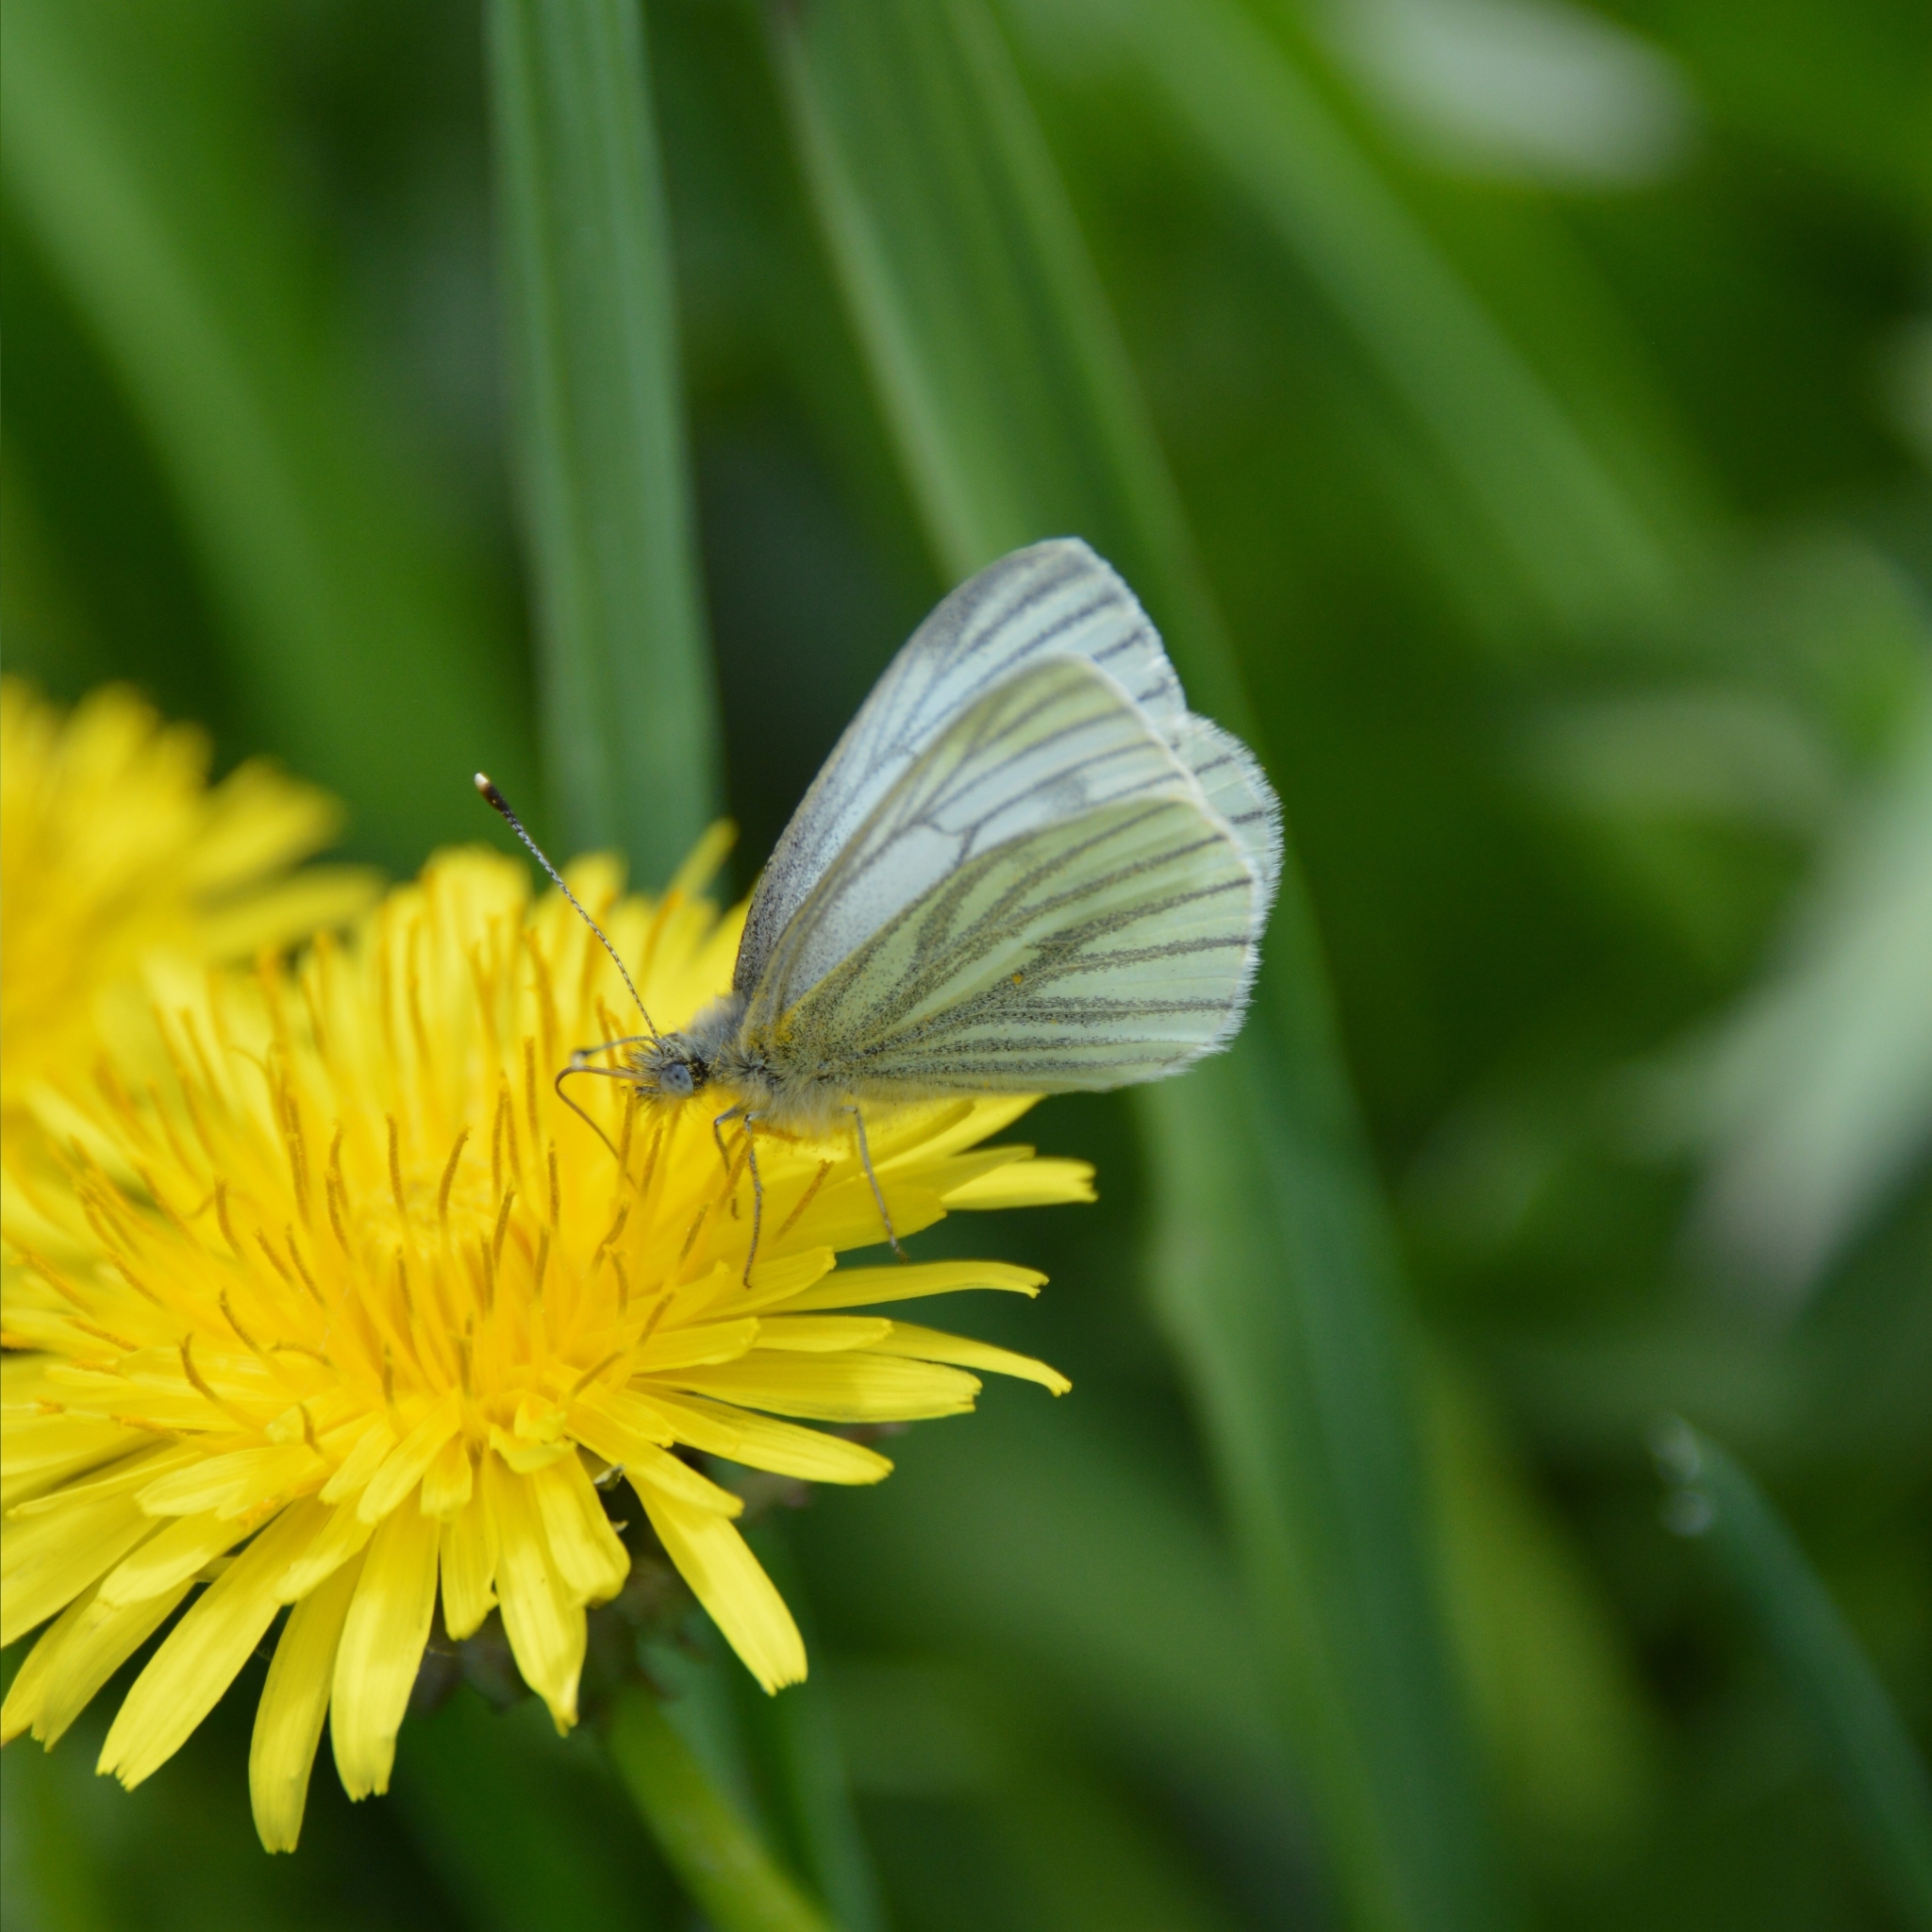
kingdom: Animalia
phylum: Arthropoda
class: Insecta
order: Lepidoptera
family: Pieridae
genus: Pieris
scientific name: Pieris napi
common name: Green-veined white
